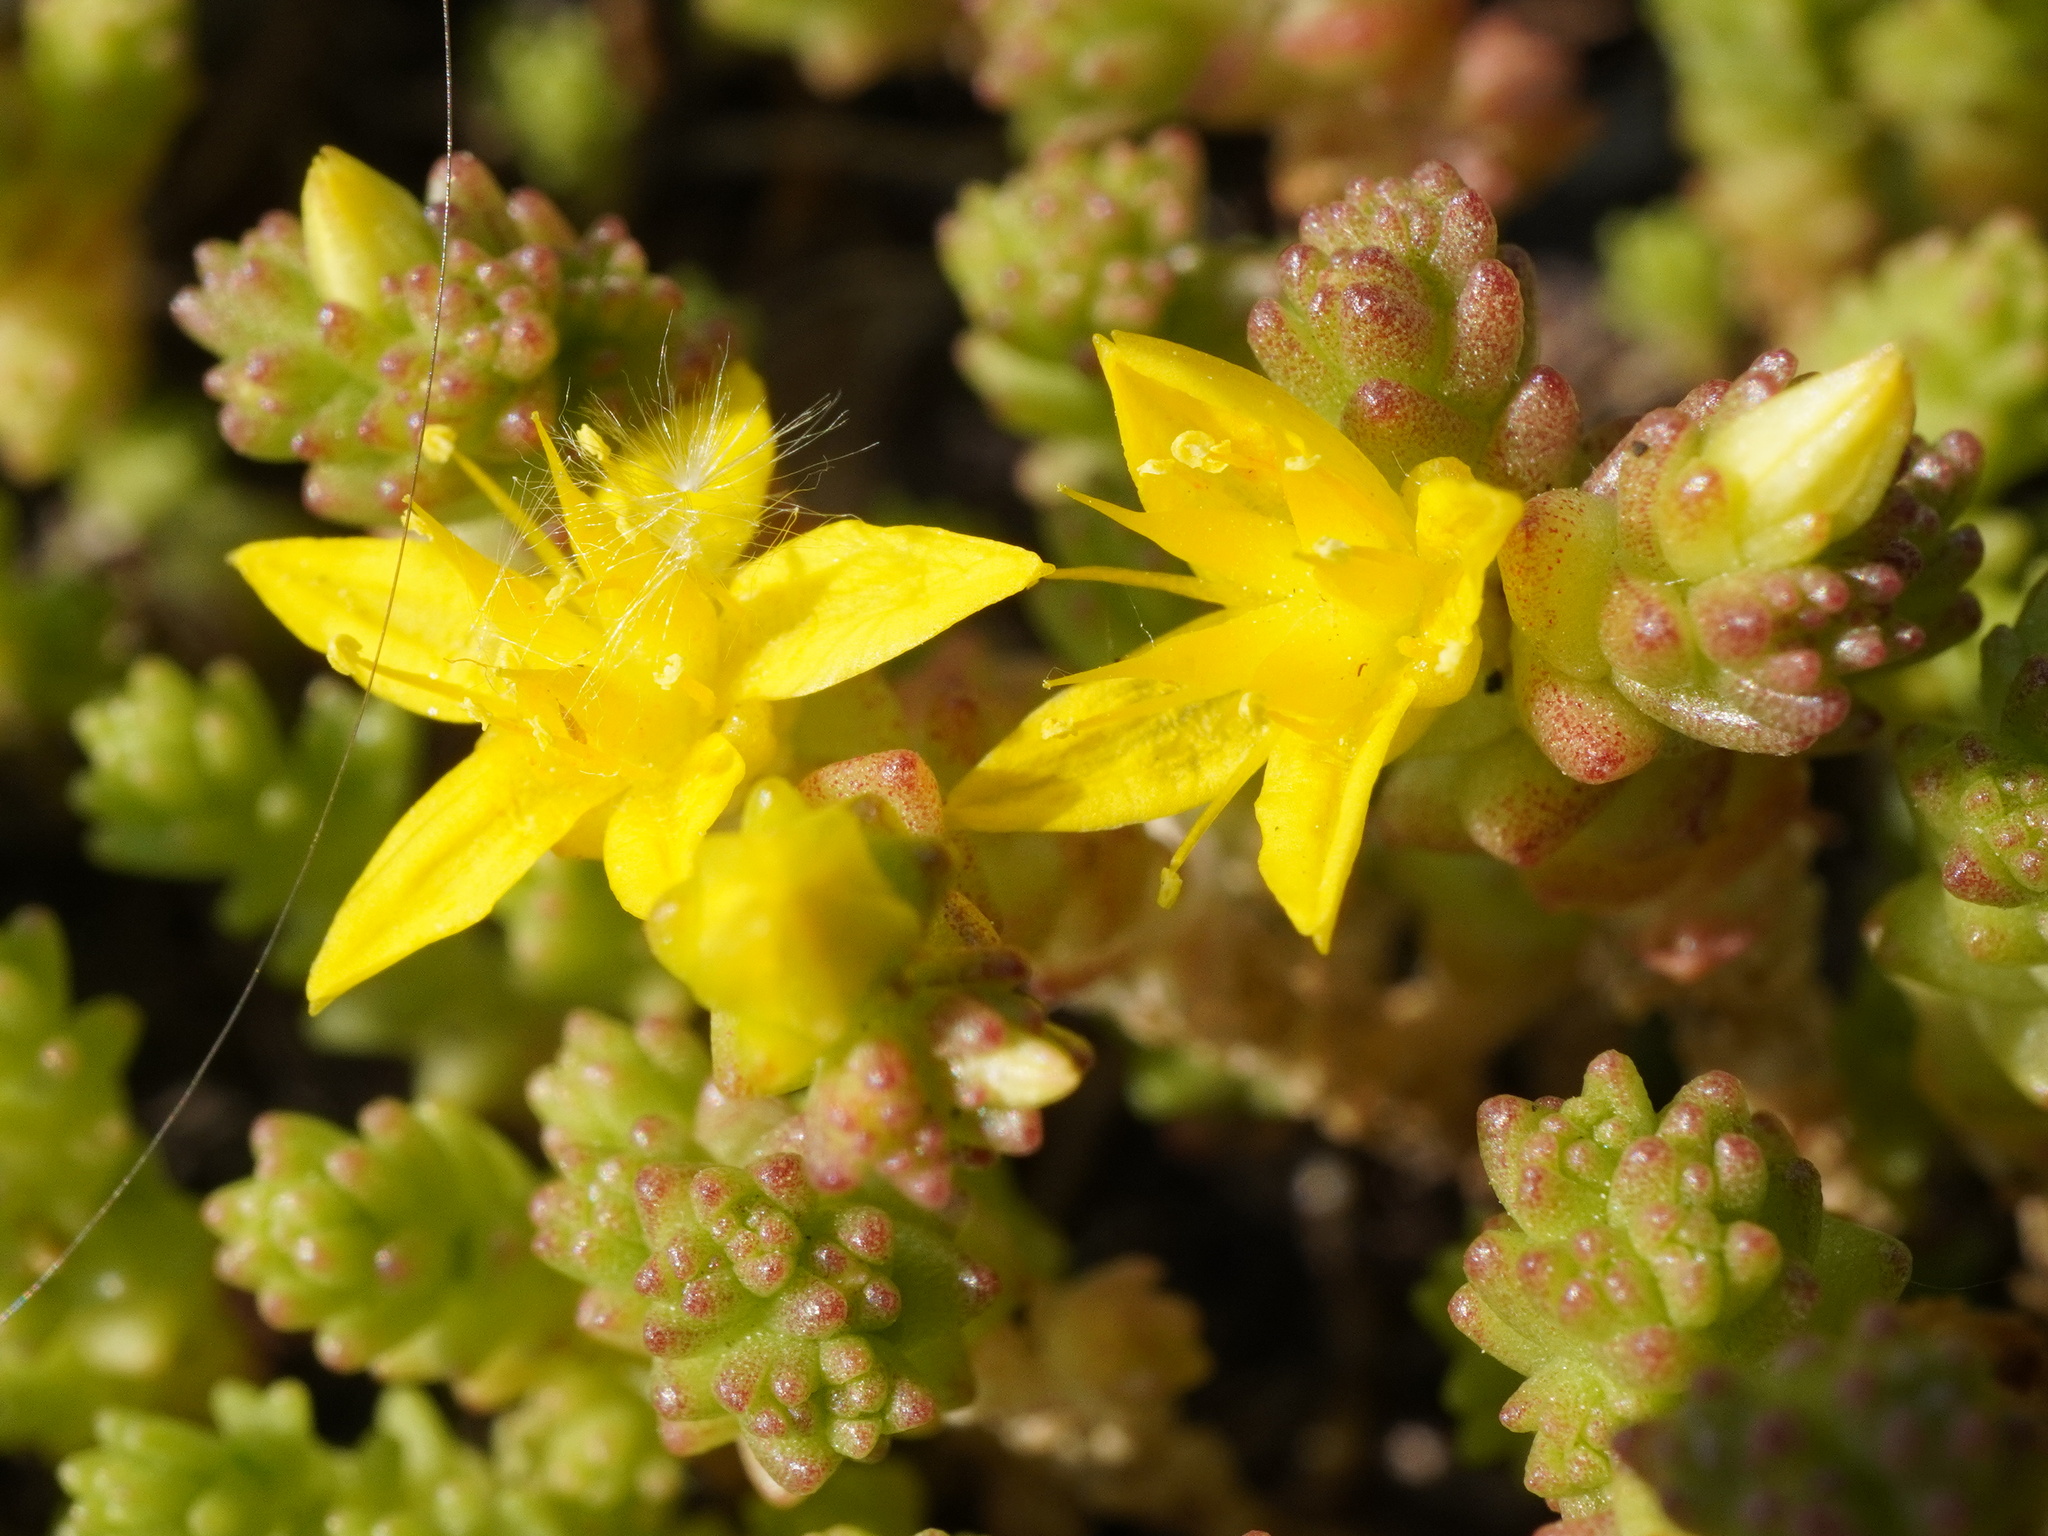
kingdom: Plantae
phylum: Tracheophyta
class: Magnoliopsida
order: Saxifragales
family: Crassulaceae
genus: Sedum
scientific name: Sedum acre
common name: Biting stonecrop
